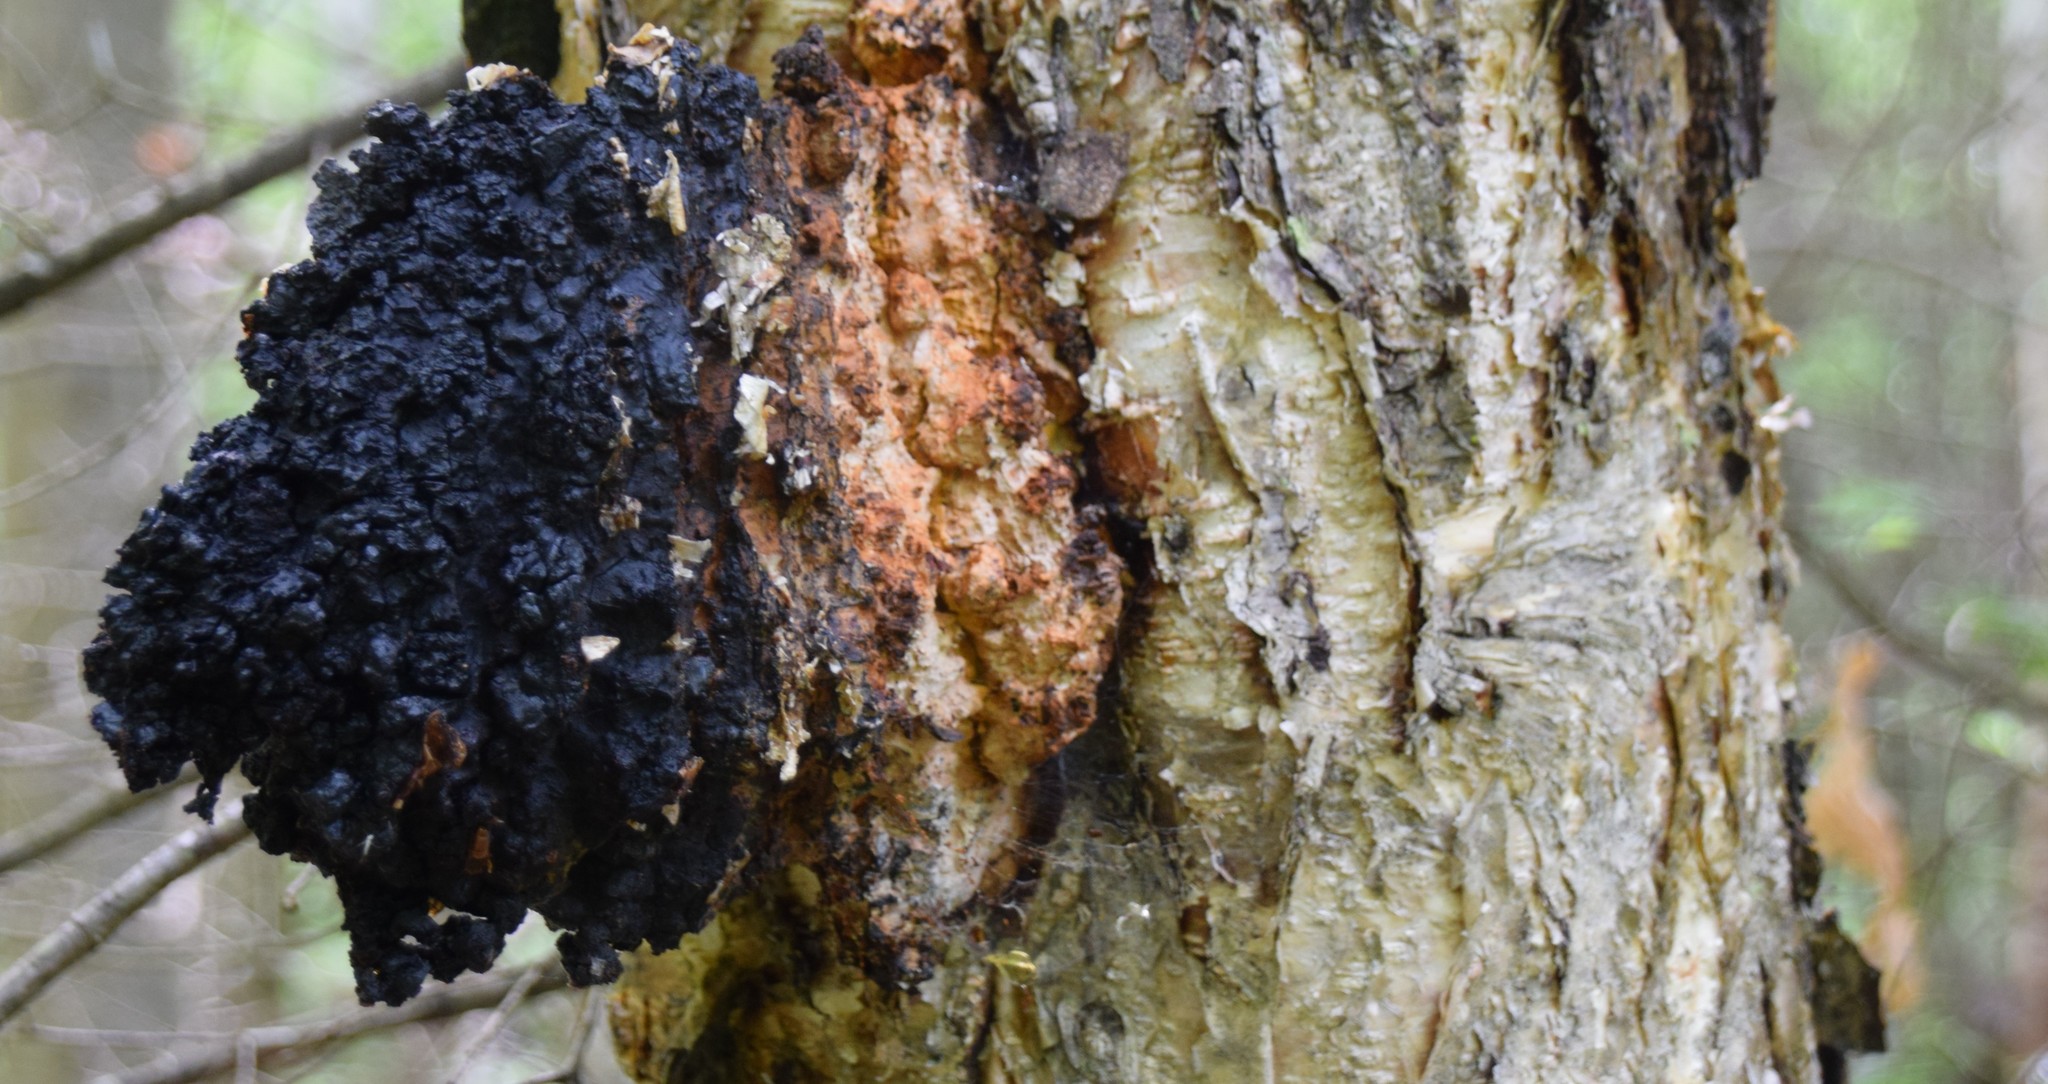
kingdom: Fungi
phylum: Basidiomycota
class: Agaricomycetes
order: Hymenochaetales
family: Hymenochaetaceae
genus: Inonotus
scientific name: Inonotus obliquus
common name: Chaga
